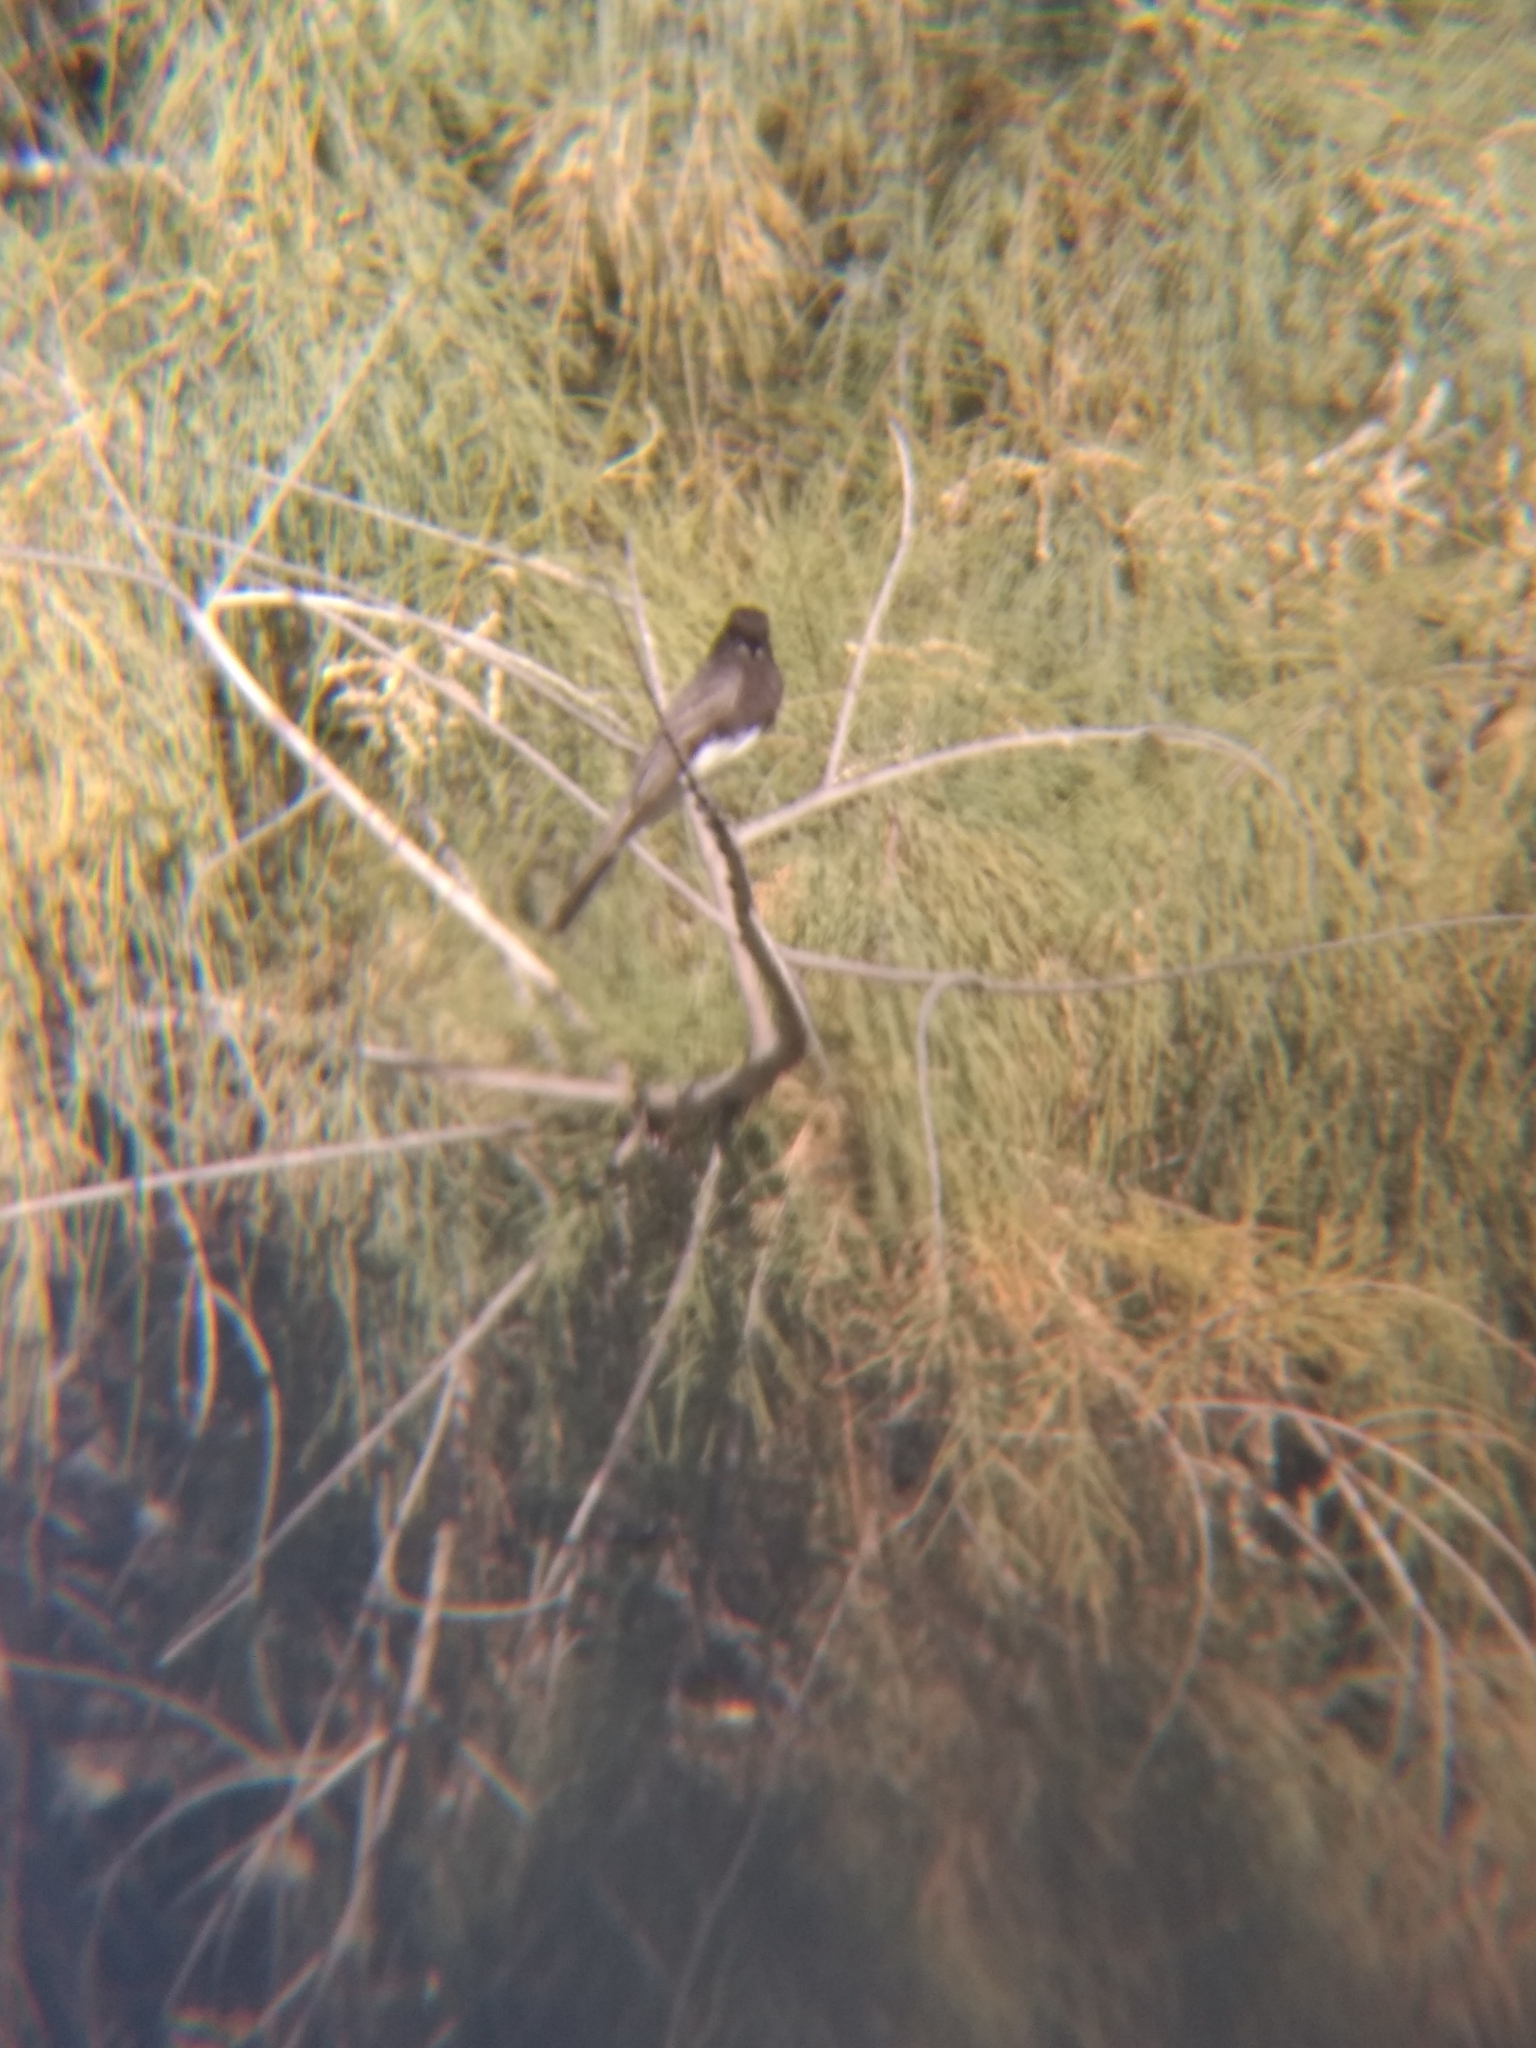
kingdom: Animalia
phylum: Chordata
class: Aves
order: Passeriformes
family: Tyrannidae
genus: Sayornis
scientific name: Sayornis nigricans
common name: Black phoebe
